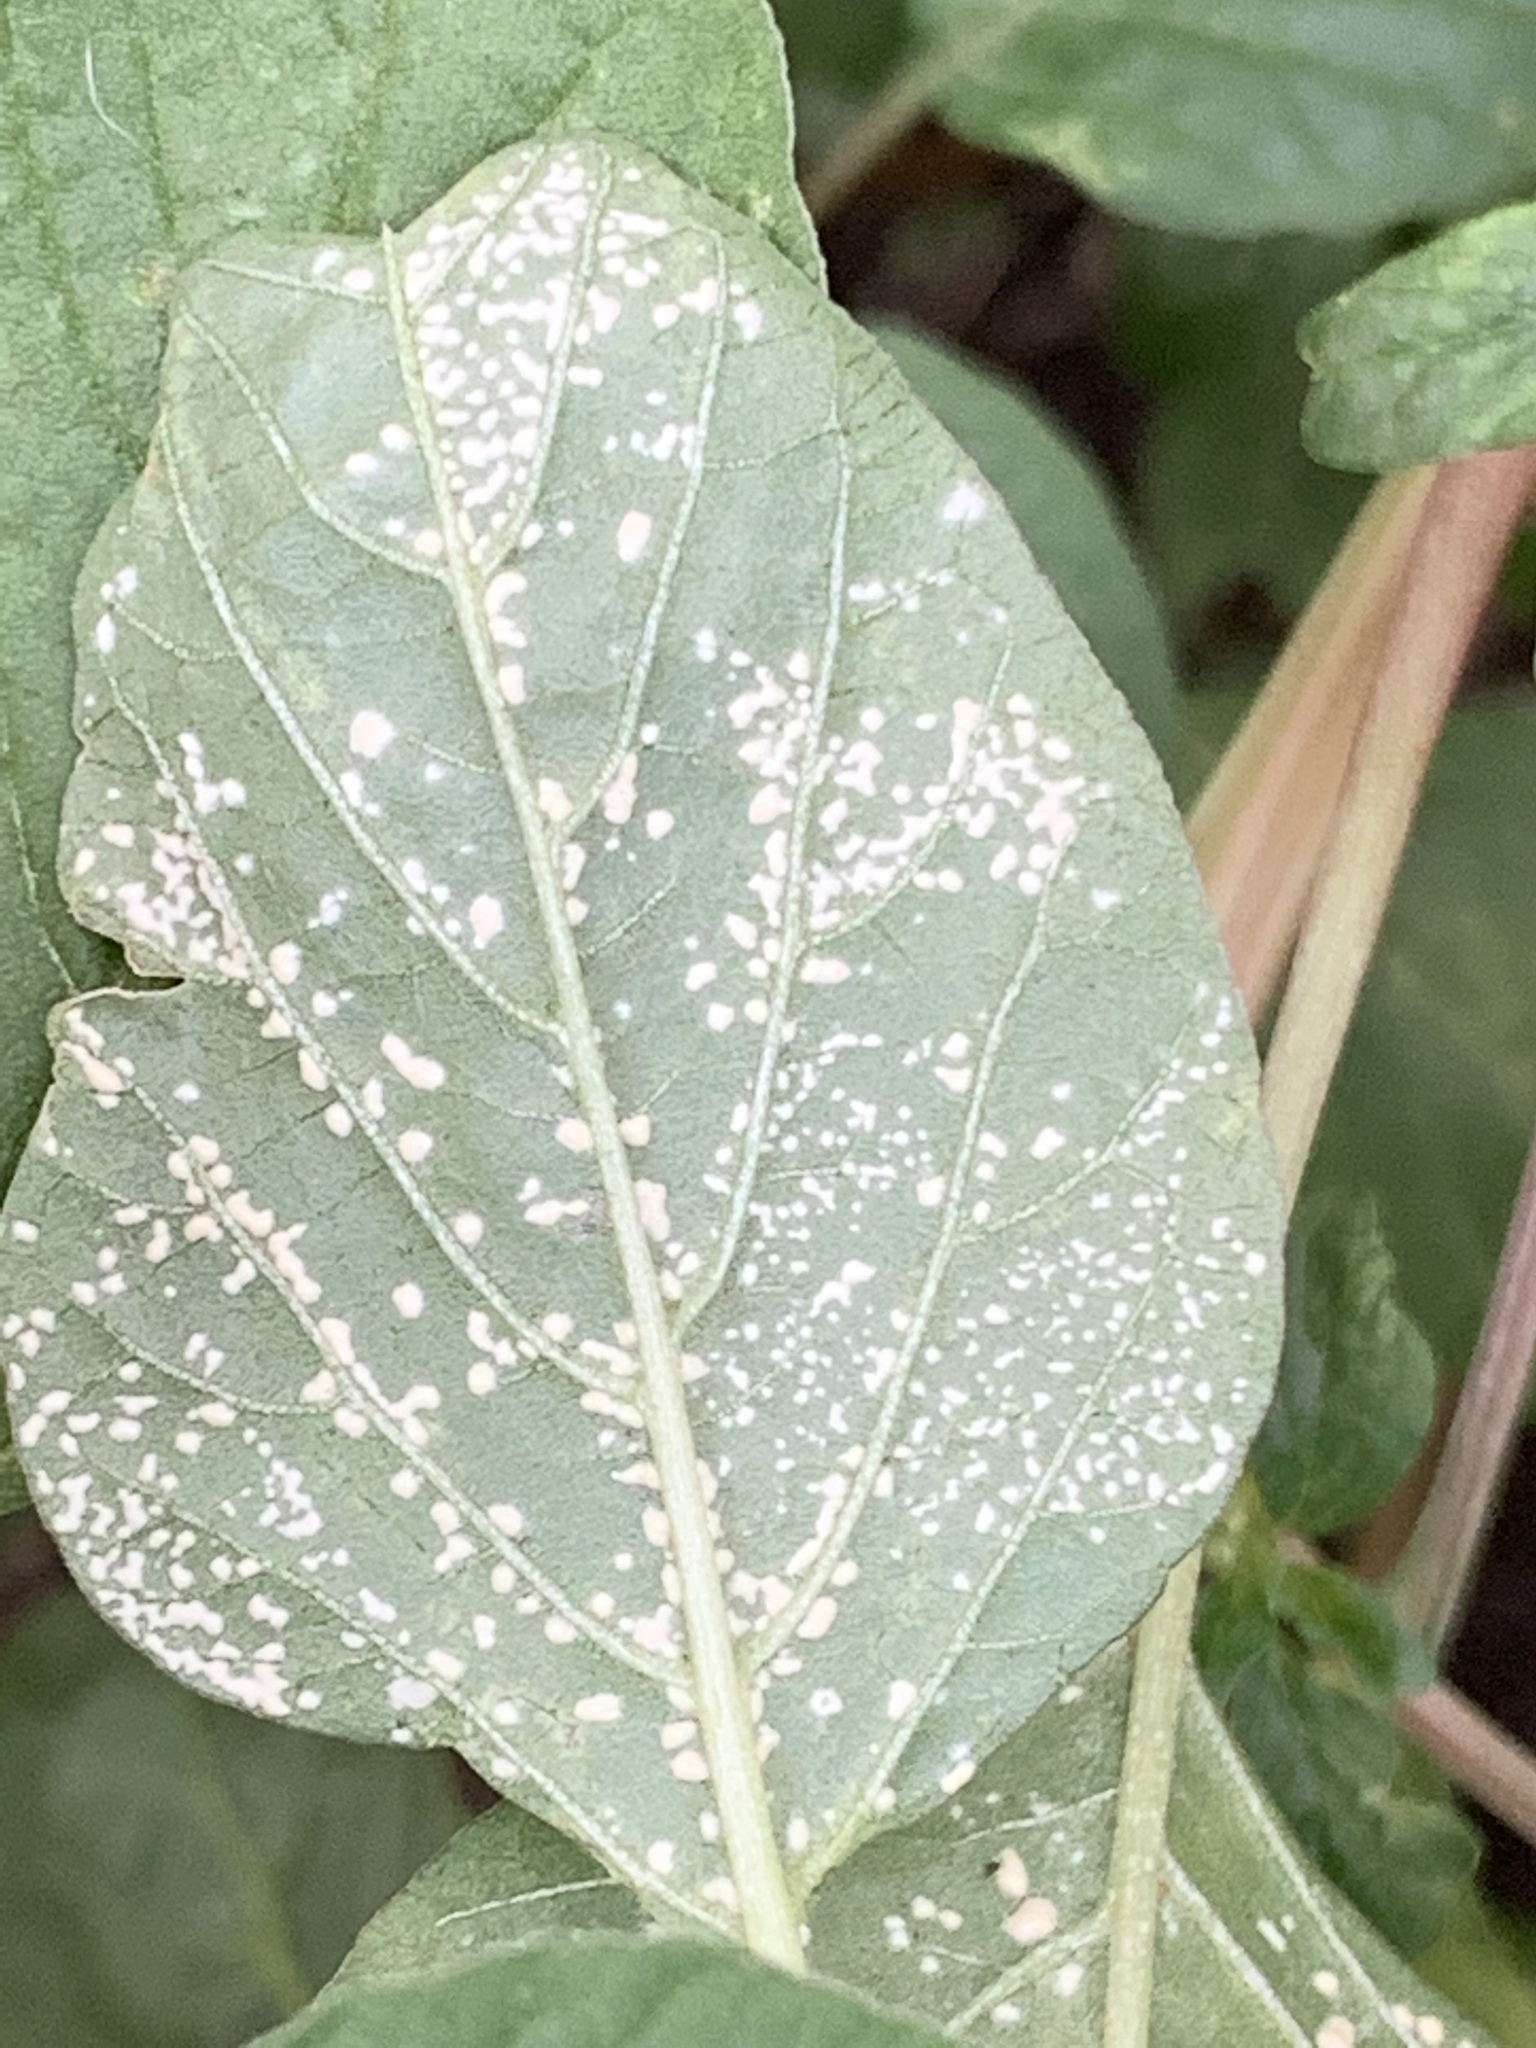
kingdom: Chromista
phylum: Oomycota
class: Peronosporea
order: Albuginales
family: Albuginaceae
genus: Wilsoniana
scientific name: Wilsoniana bliti
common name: White blister rust disease
